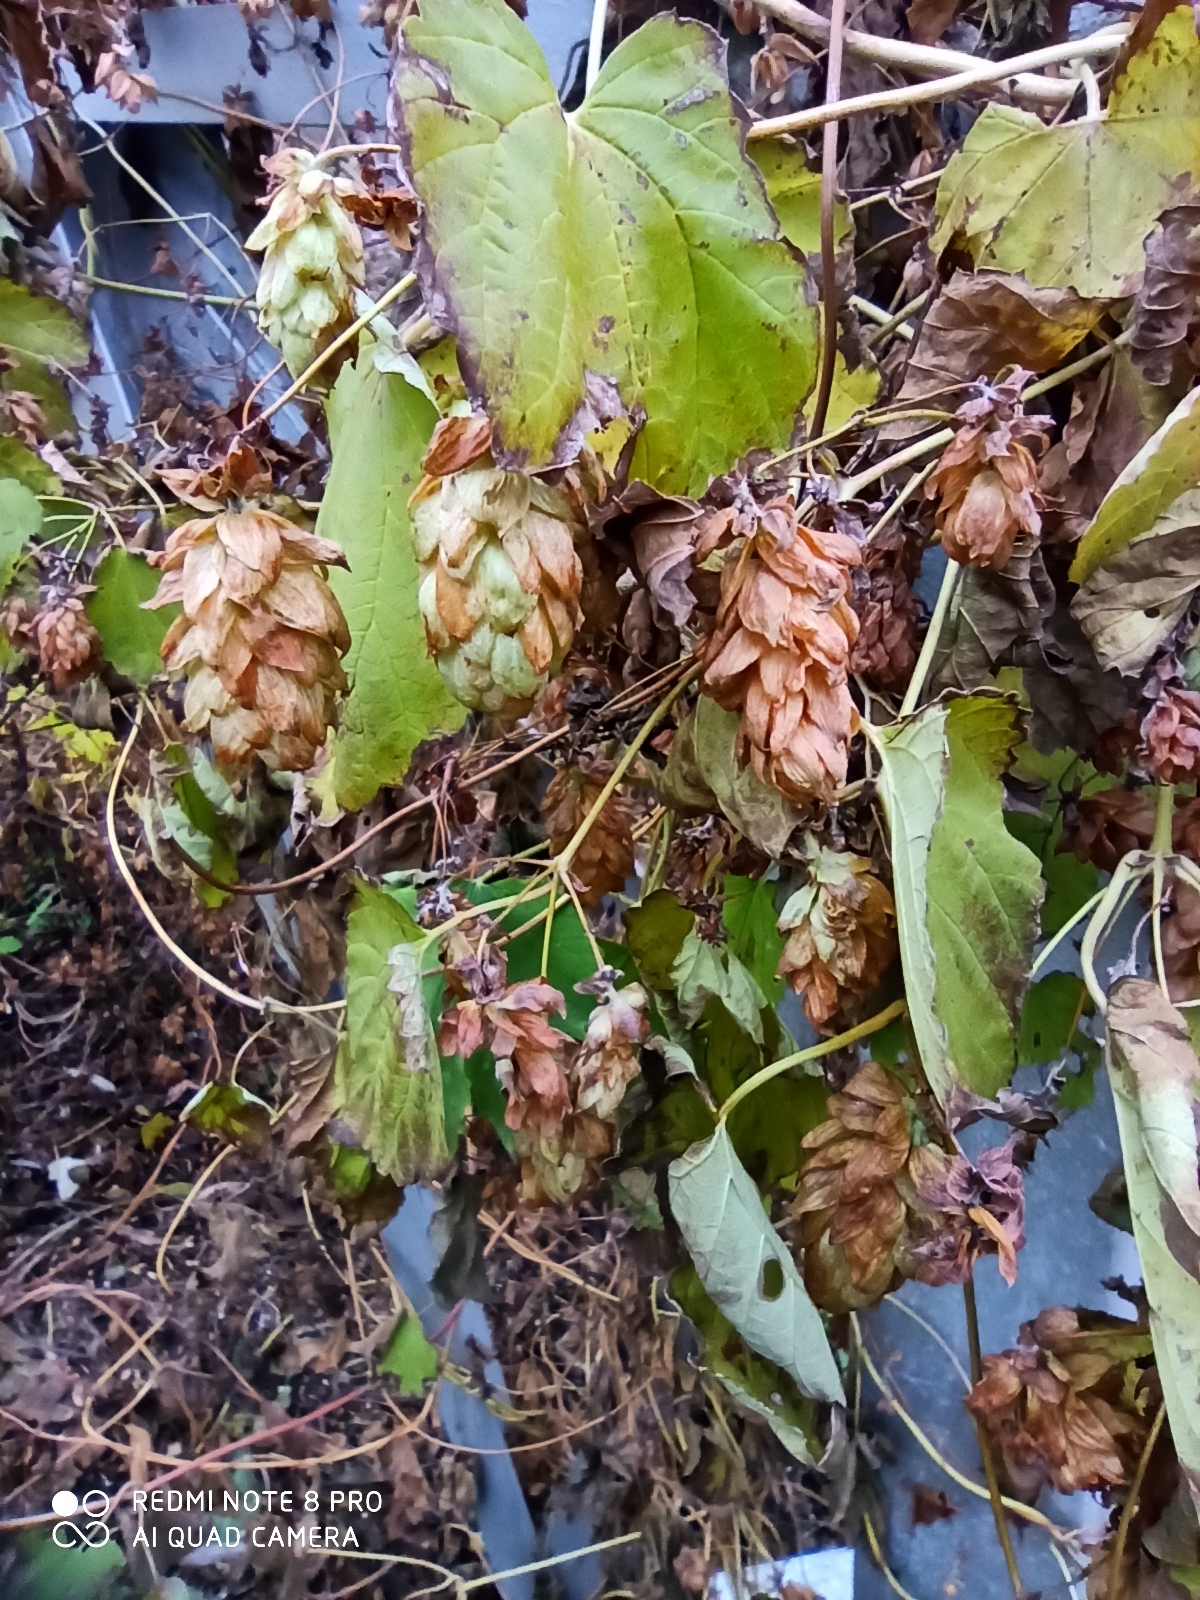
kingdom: Plantae
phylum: Tracheophyta
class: Magnoliopsida
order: Rosales
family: Cannabaceae
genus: Humulus
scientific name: Humulus lupulus
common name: Hop
